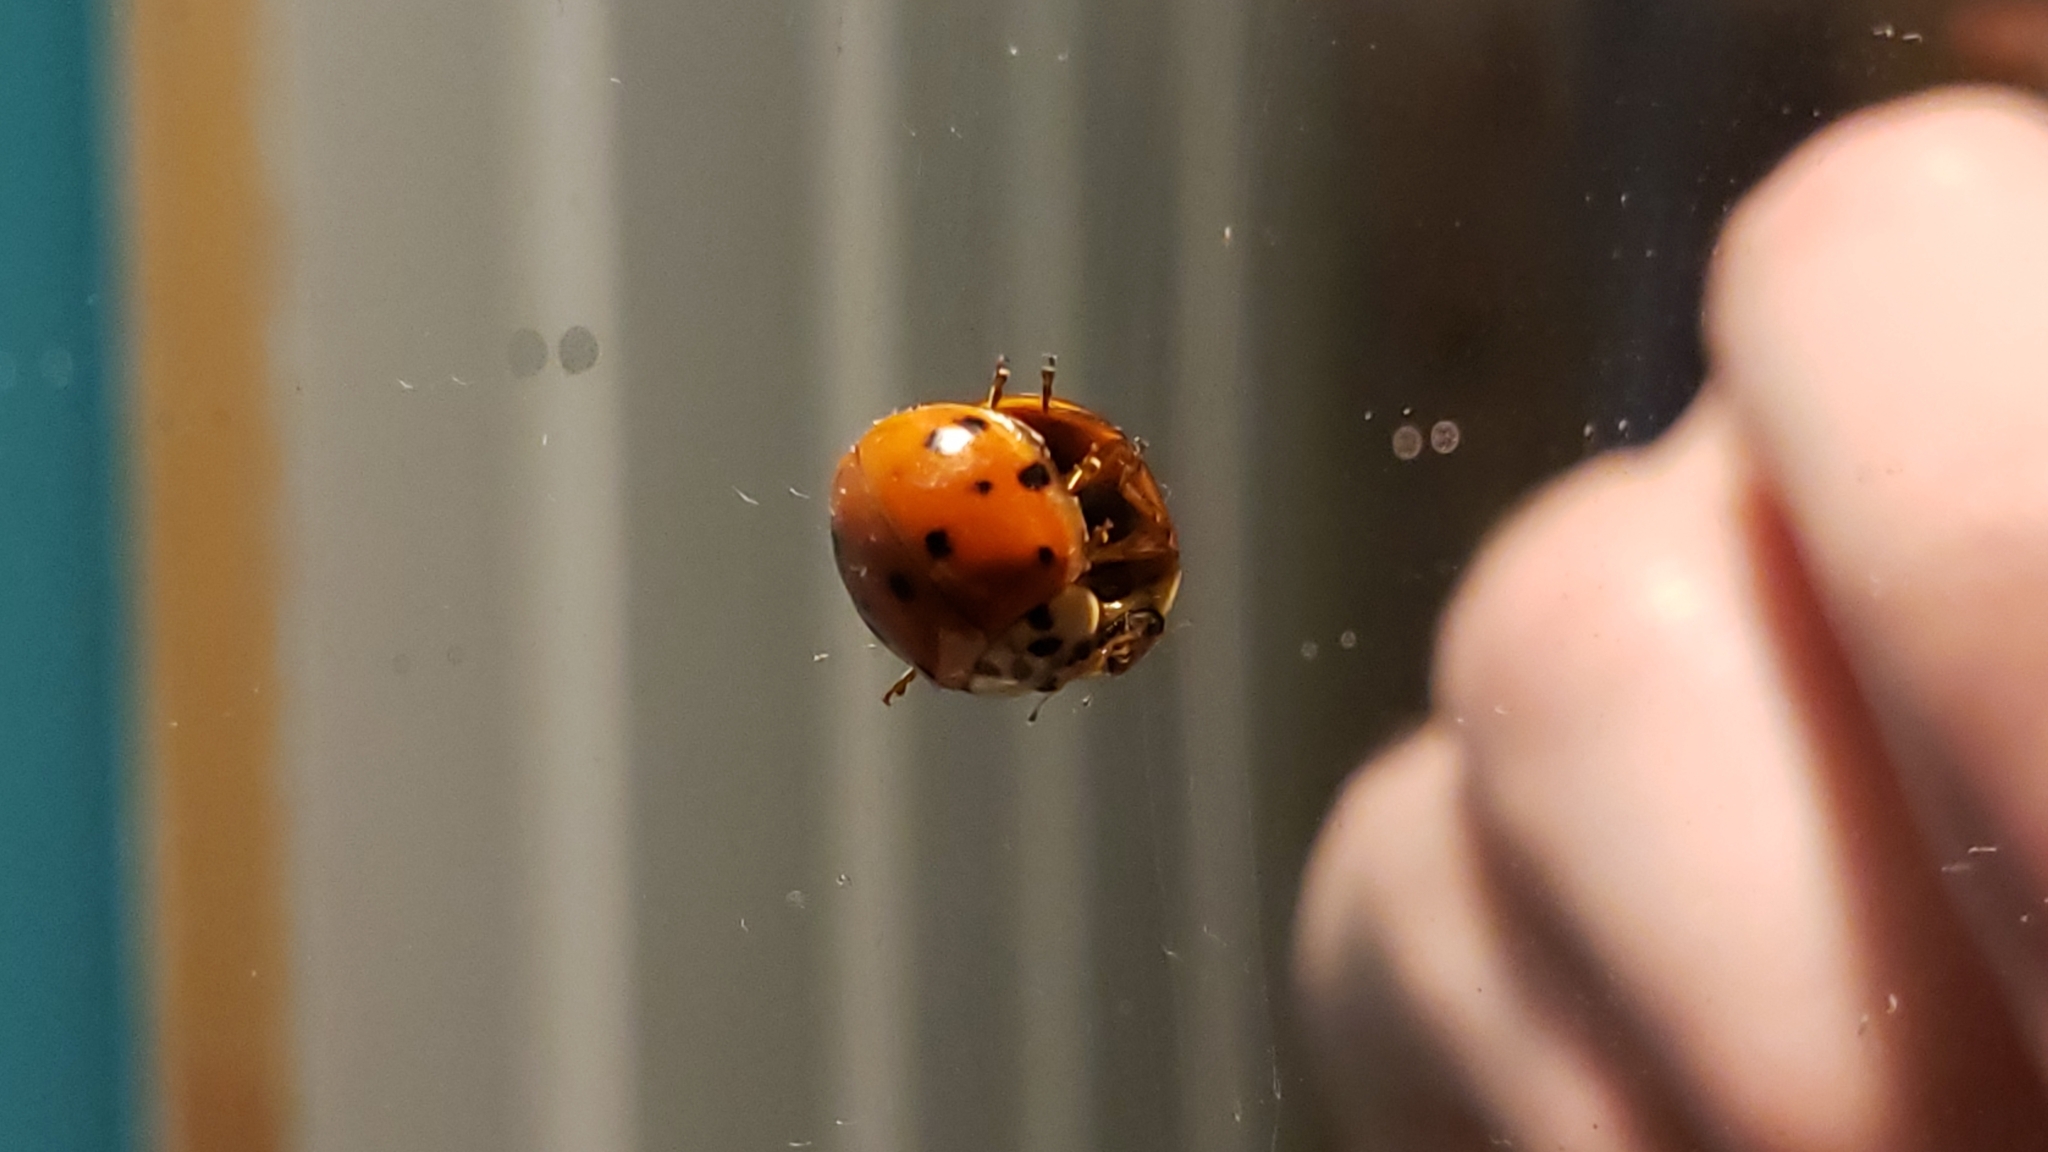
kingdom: Animalia
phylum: Arthropoda
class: Insecta
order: Coleoptera
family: Coccinellidae
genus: Harmonia
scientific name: Harmonia axyridis
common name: Harlequin ladybird
